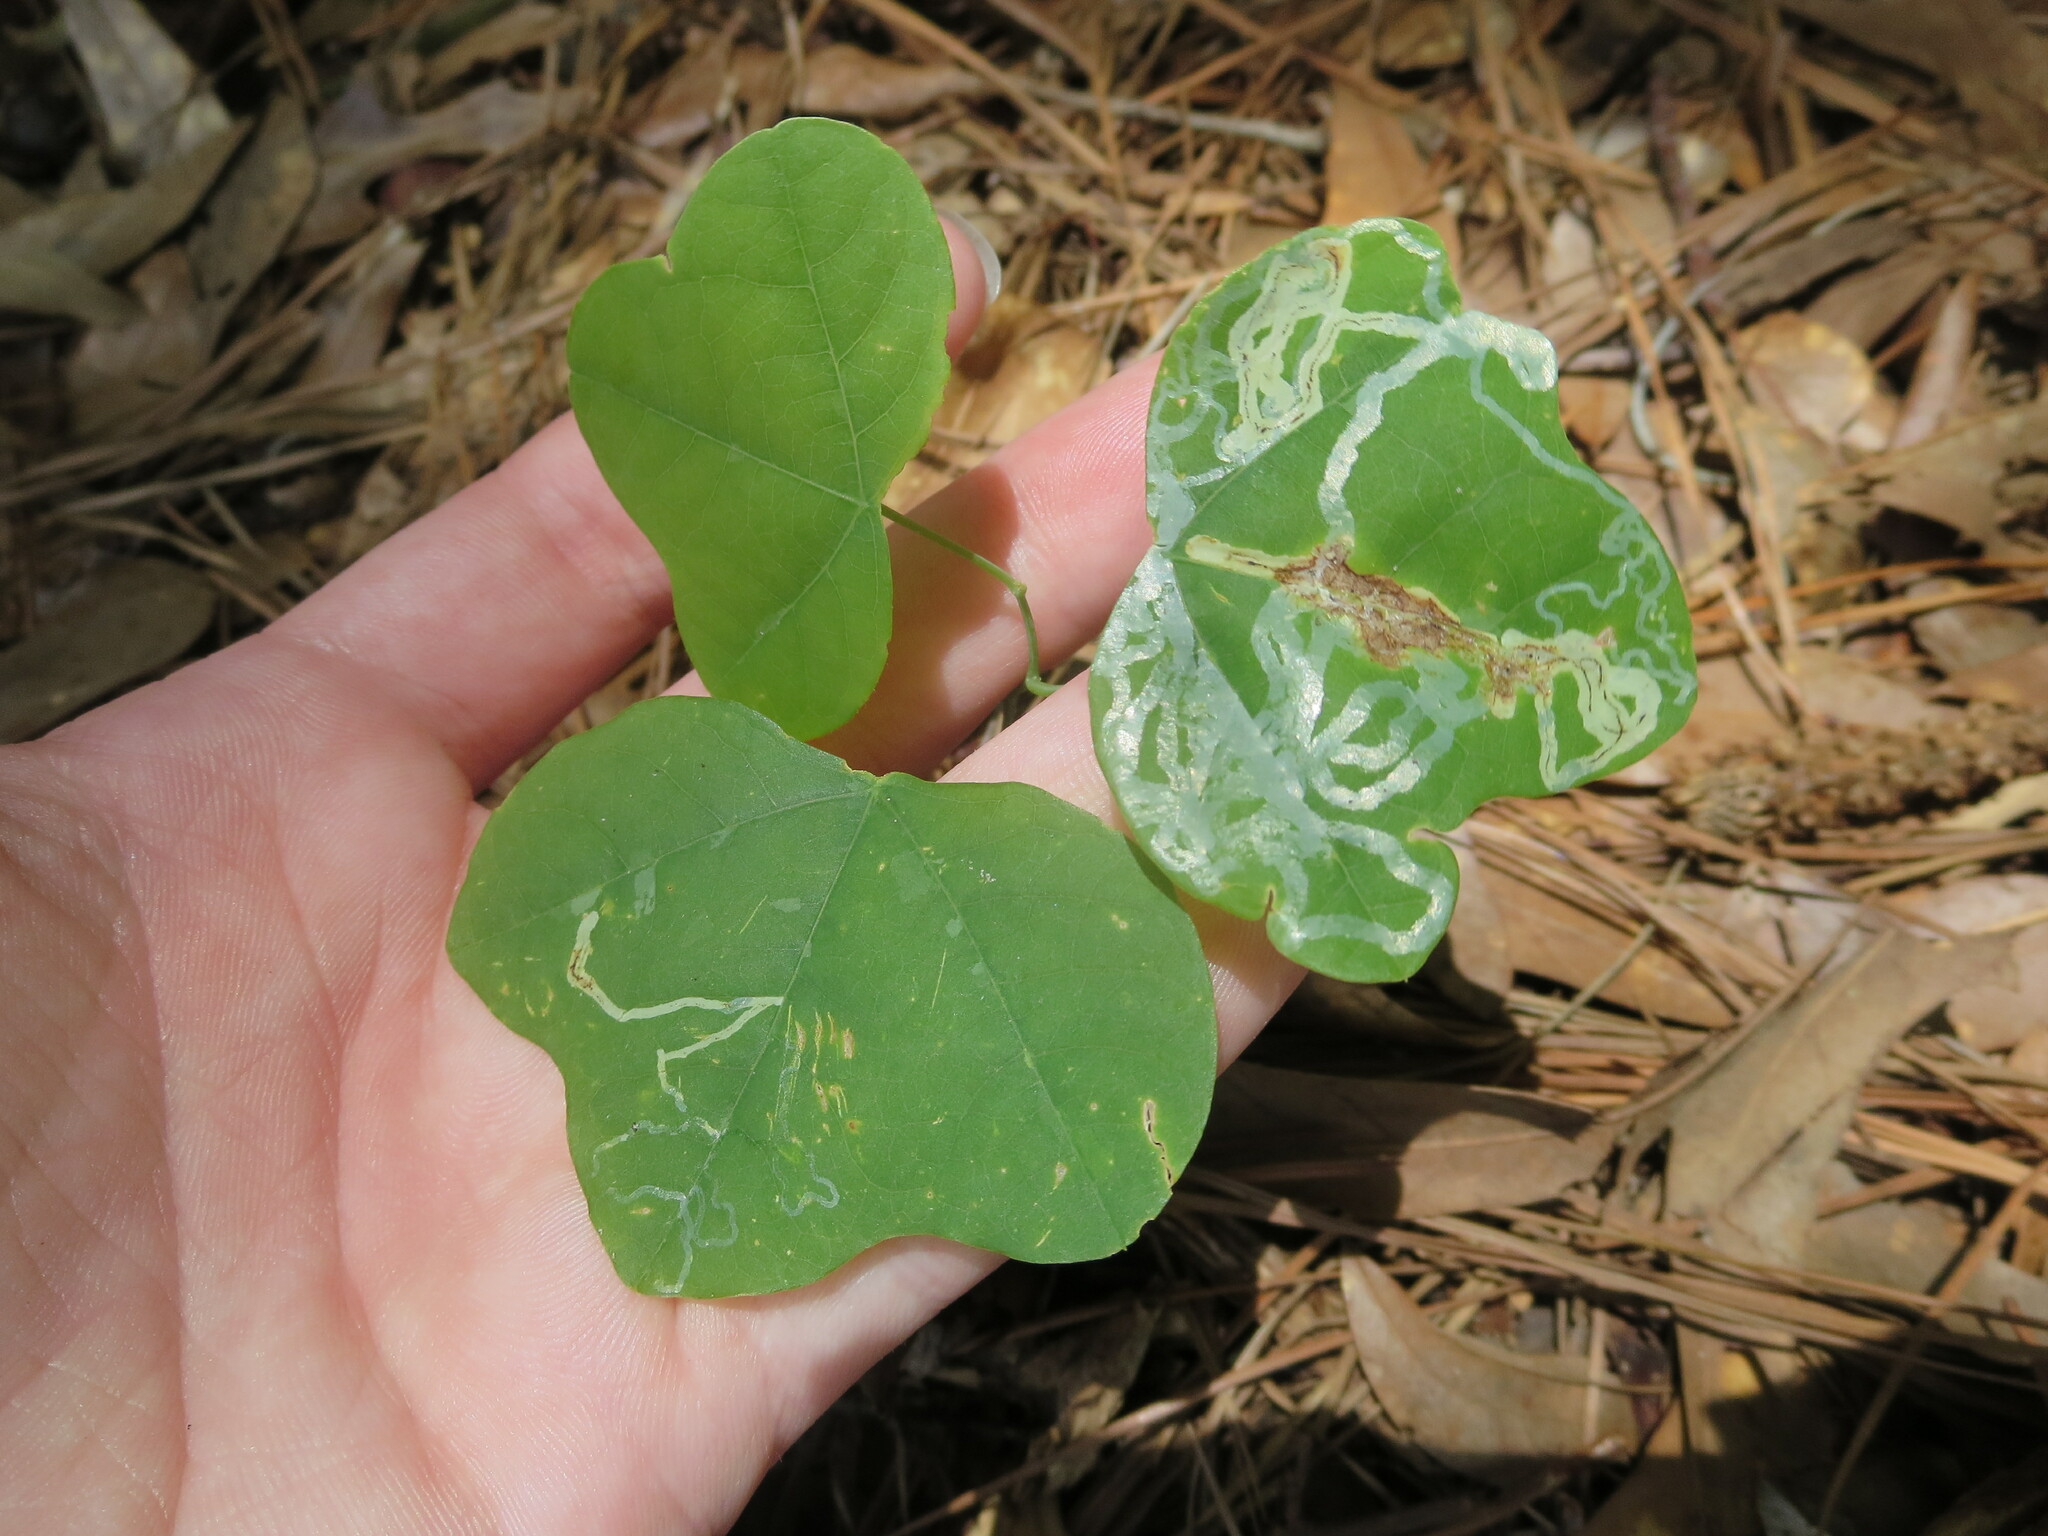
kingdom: Plantae
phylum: Tracheophyta
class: Magnoliopsida
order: Malpighiales
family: Passifloraceae
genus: Passiflora
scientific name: Passiflora lutea
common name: Yellow passionflower
